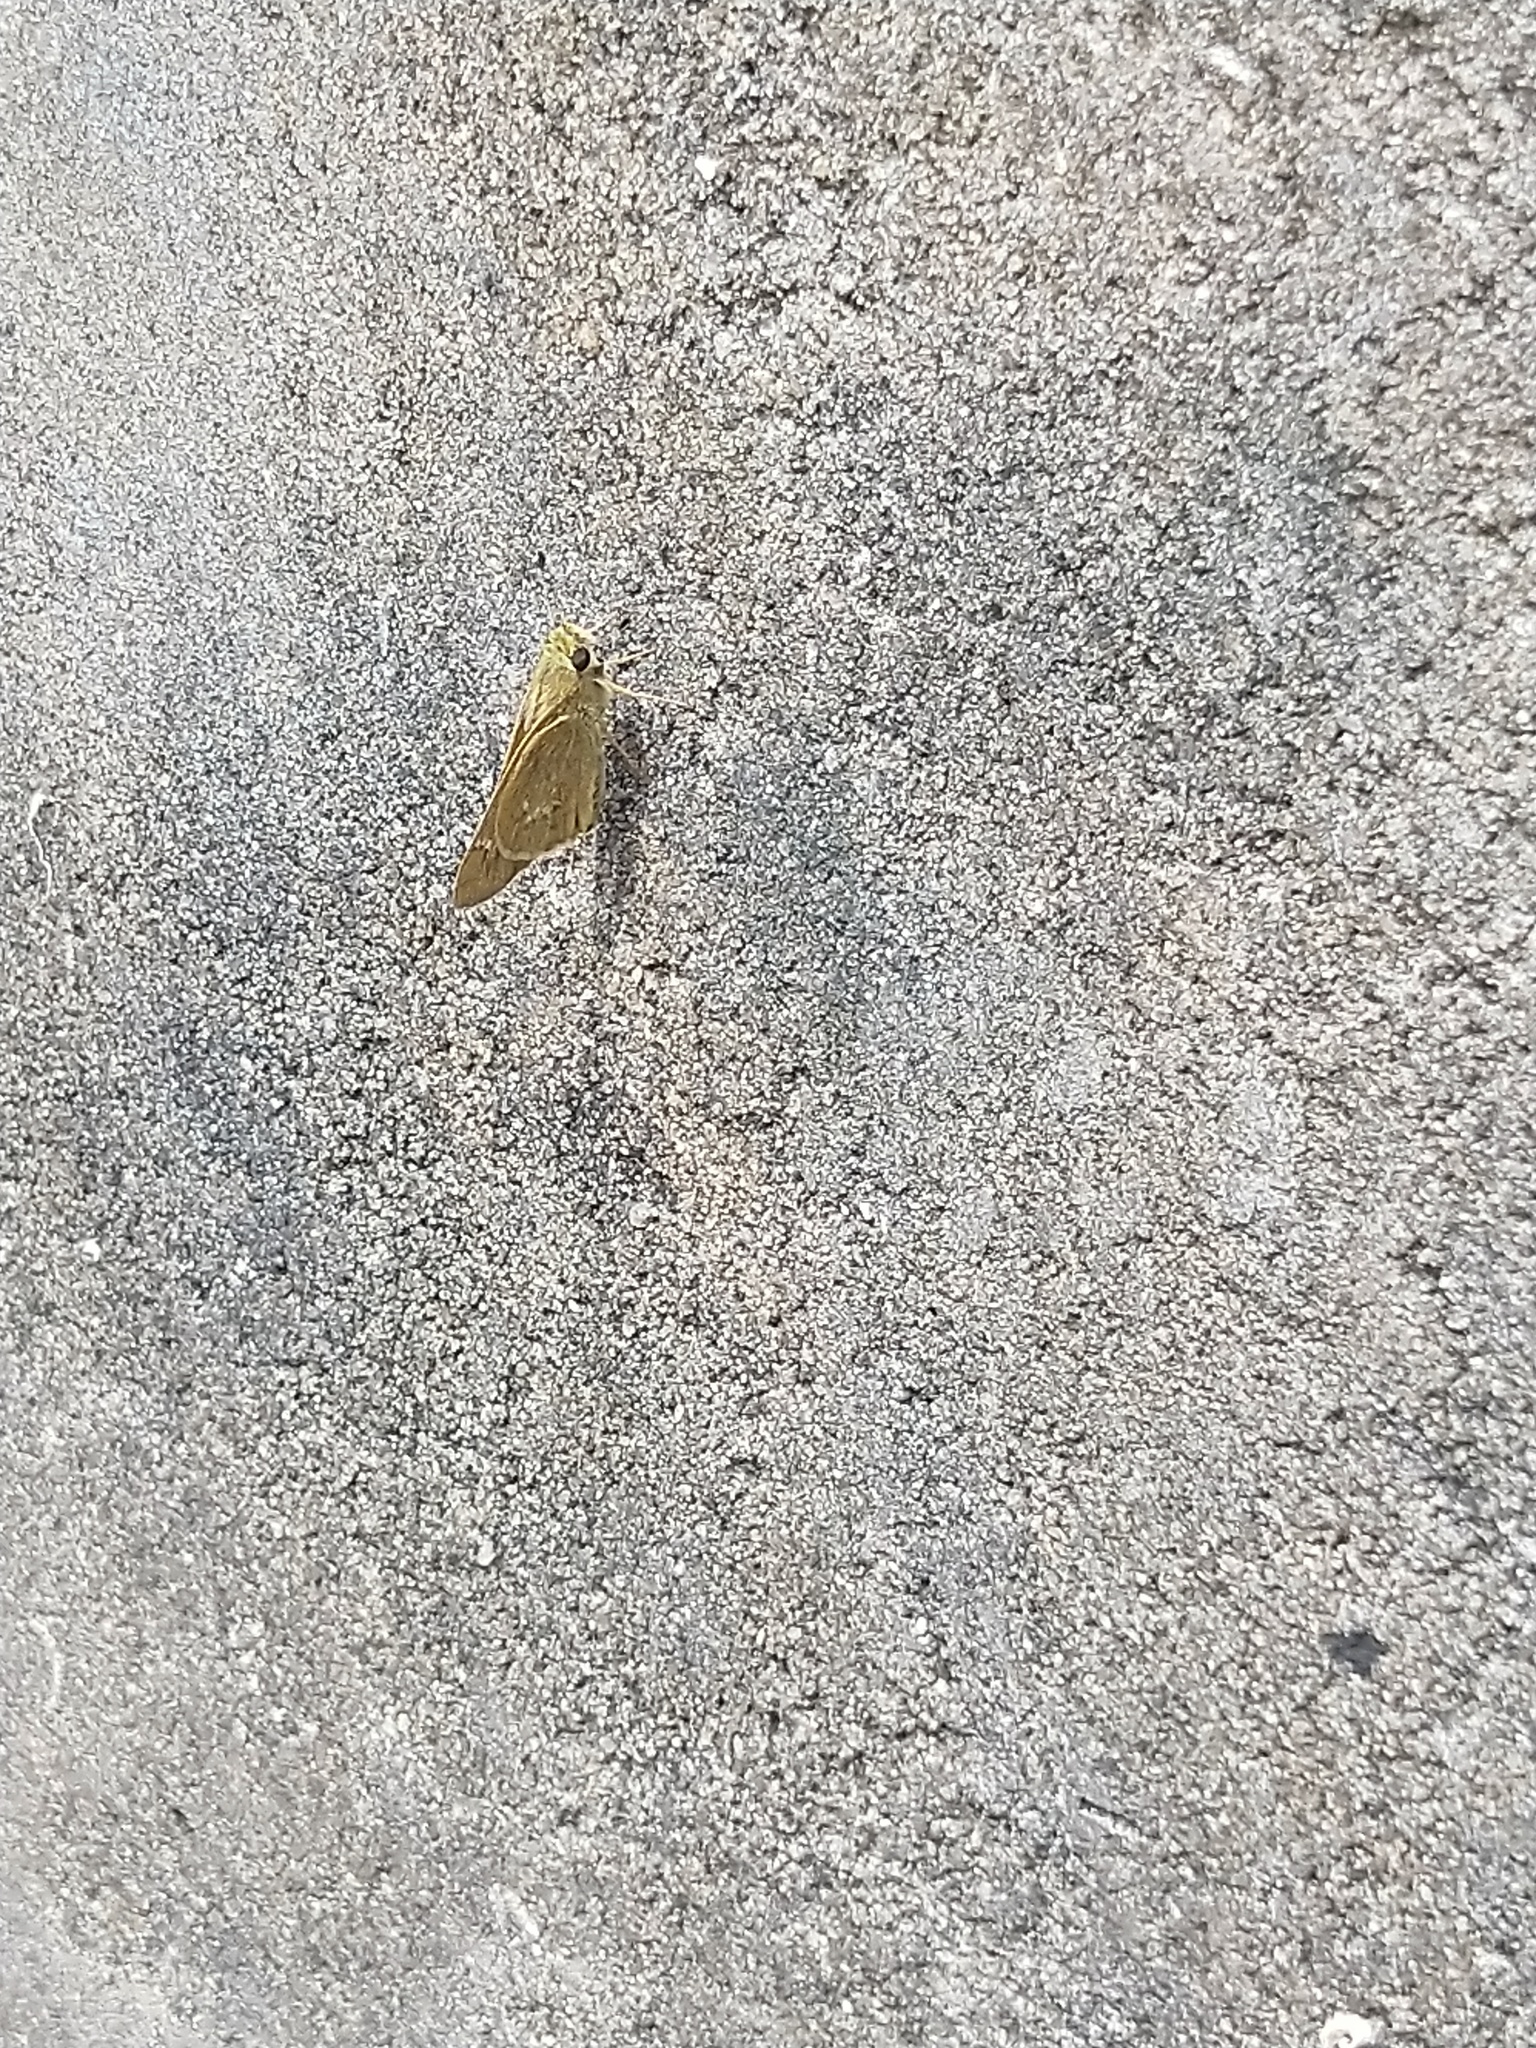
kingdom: Animalia
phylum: Arthropoda
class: Insecta
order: Lepidoptera
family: Hesperiidae
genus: Parnara
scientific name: Parnara naso
